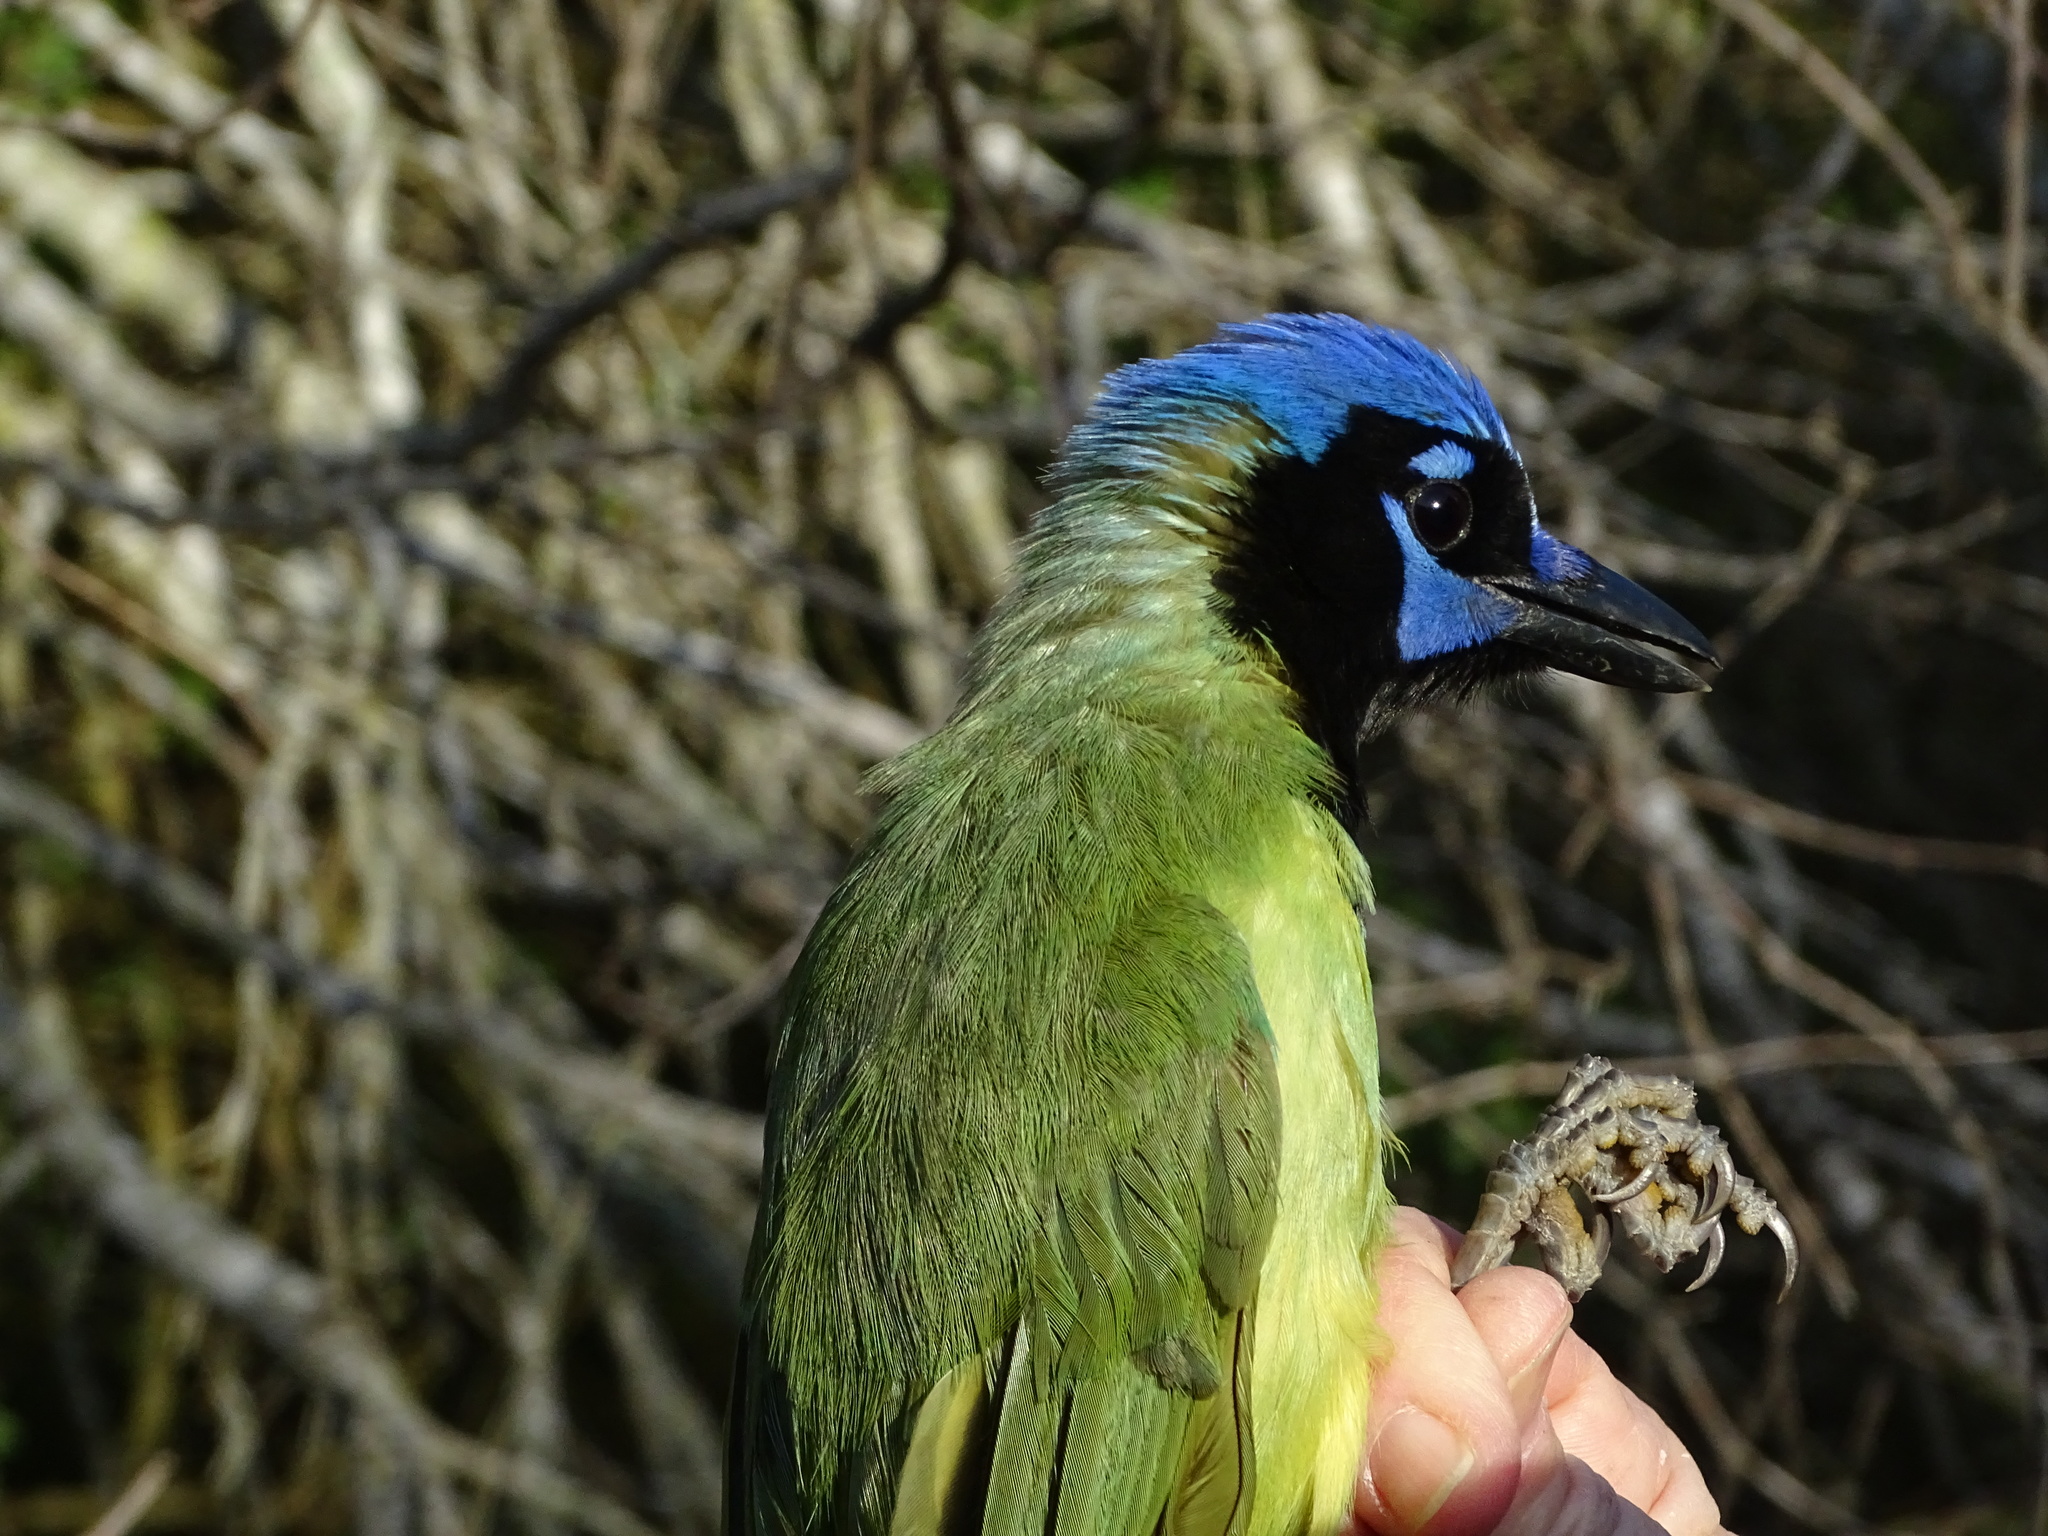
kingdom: Animalia
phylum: Chordata
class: Aves
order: Passeriformes
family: Corvidae
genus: Cyanocorax
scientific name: Cyanocorax yncas
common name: Green jay
